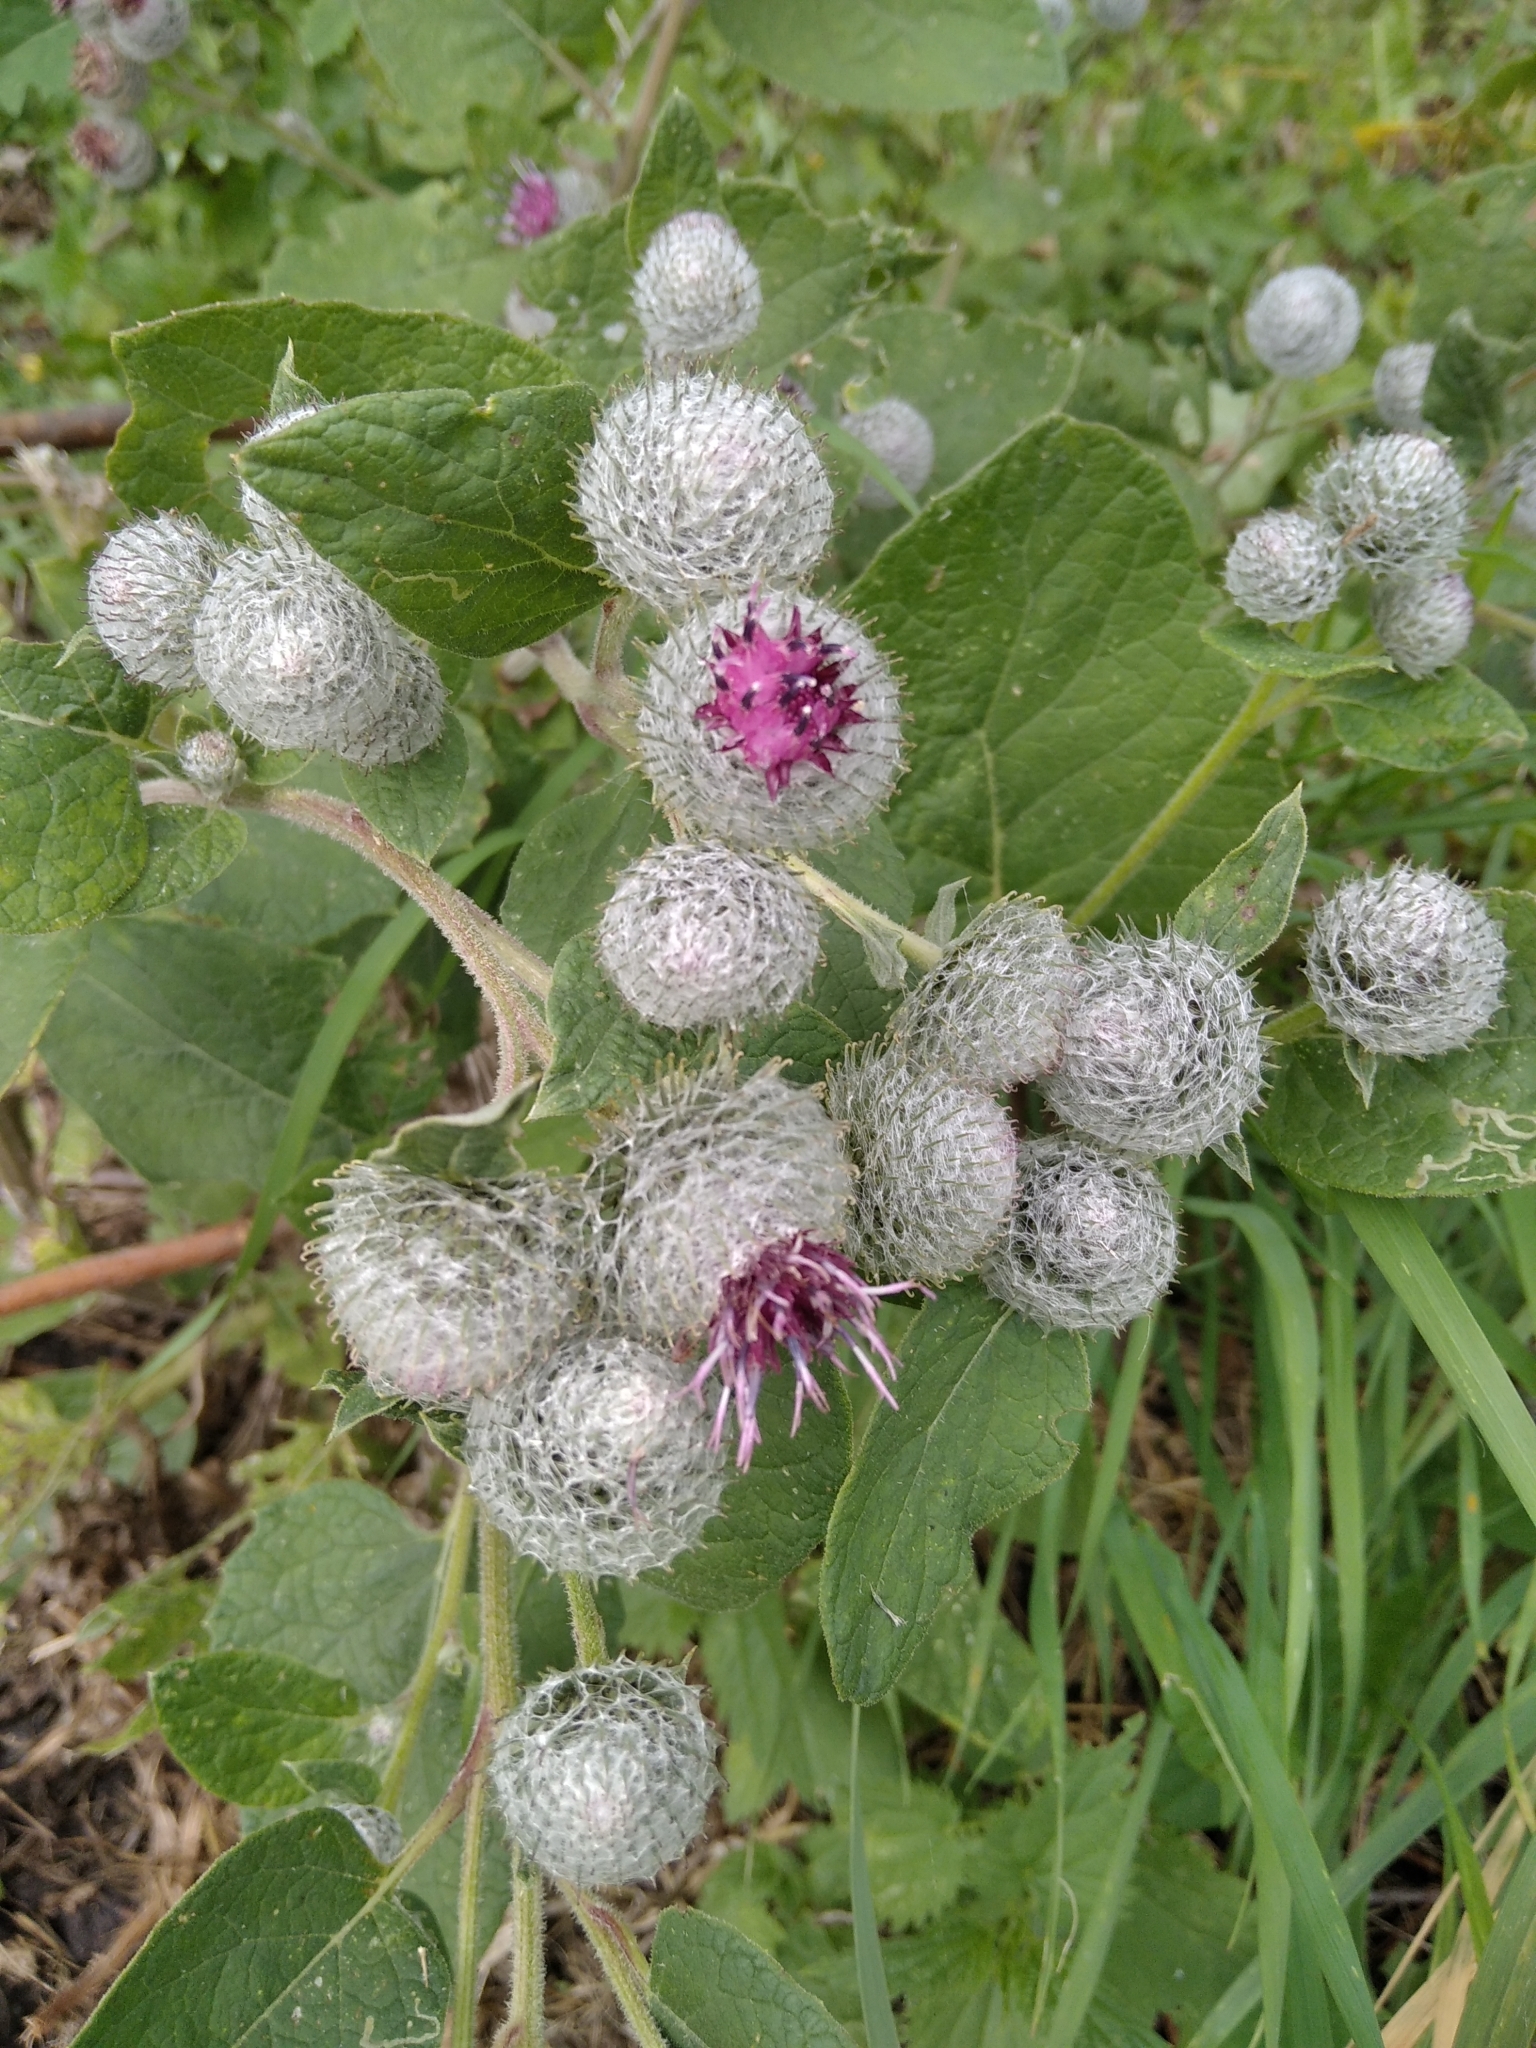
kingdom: Plantae
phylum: Tracheophyta
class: Magnoliopsida
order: Asterales
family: Asteraceae
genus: Arctium
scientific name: Arctium tomentosum
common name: Woolly burdock
